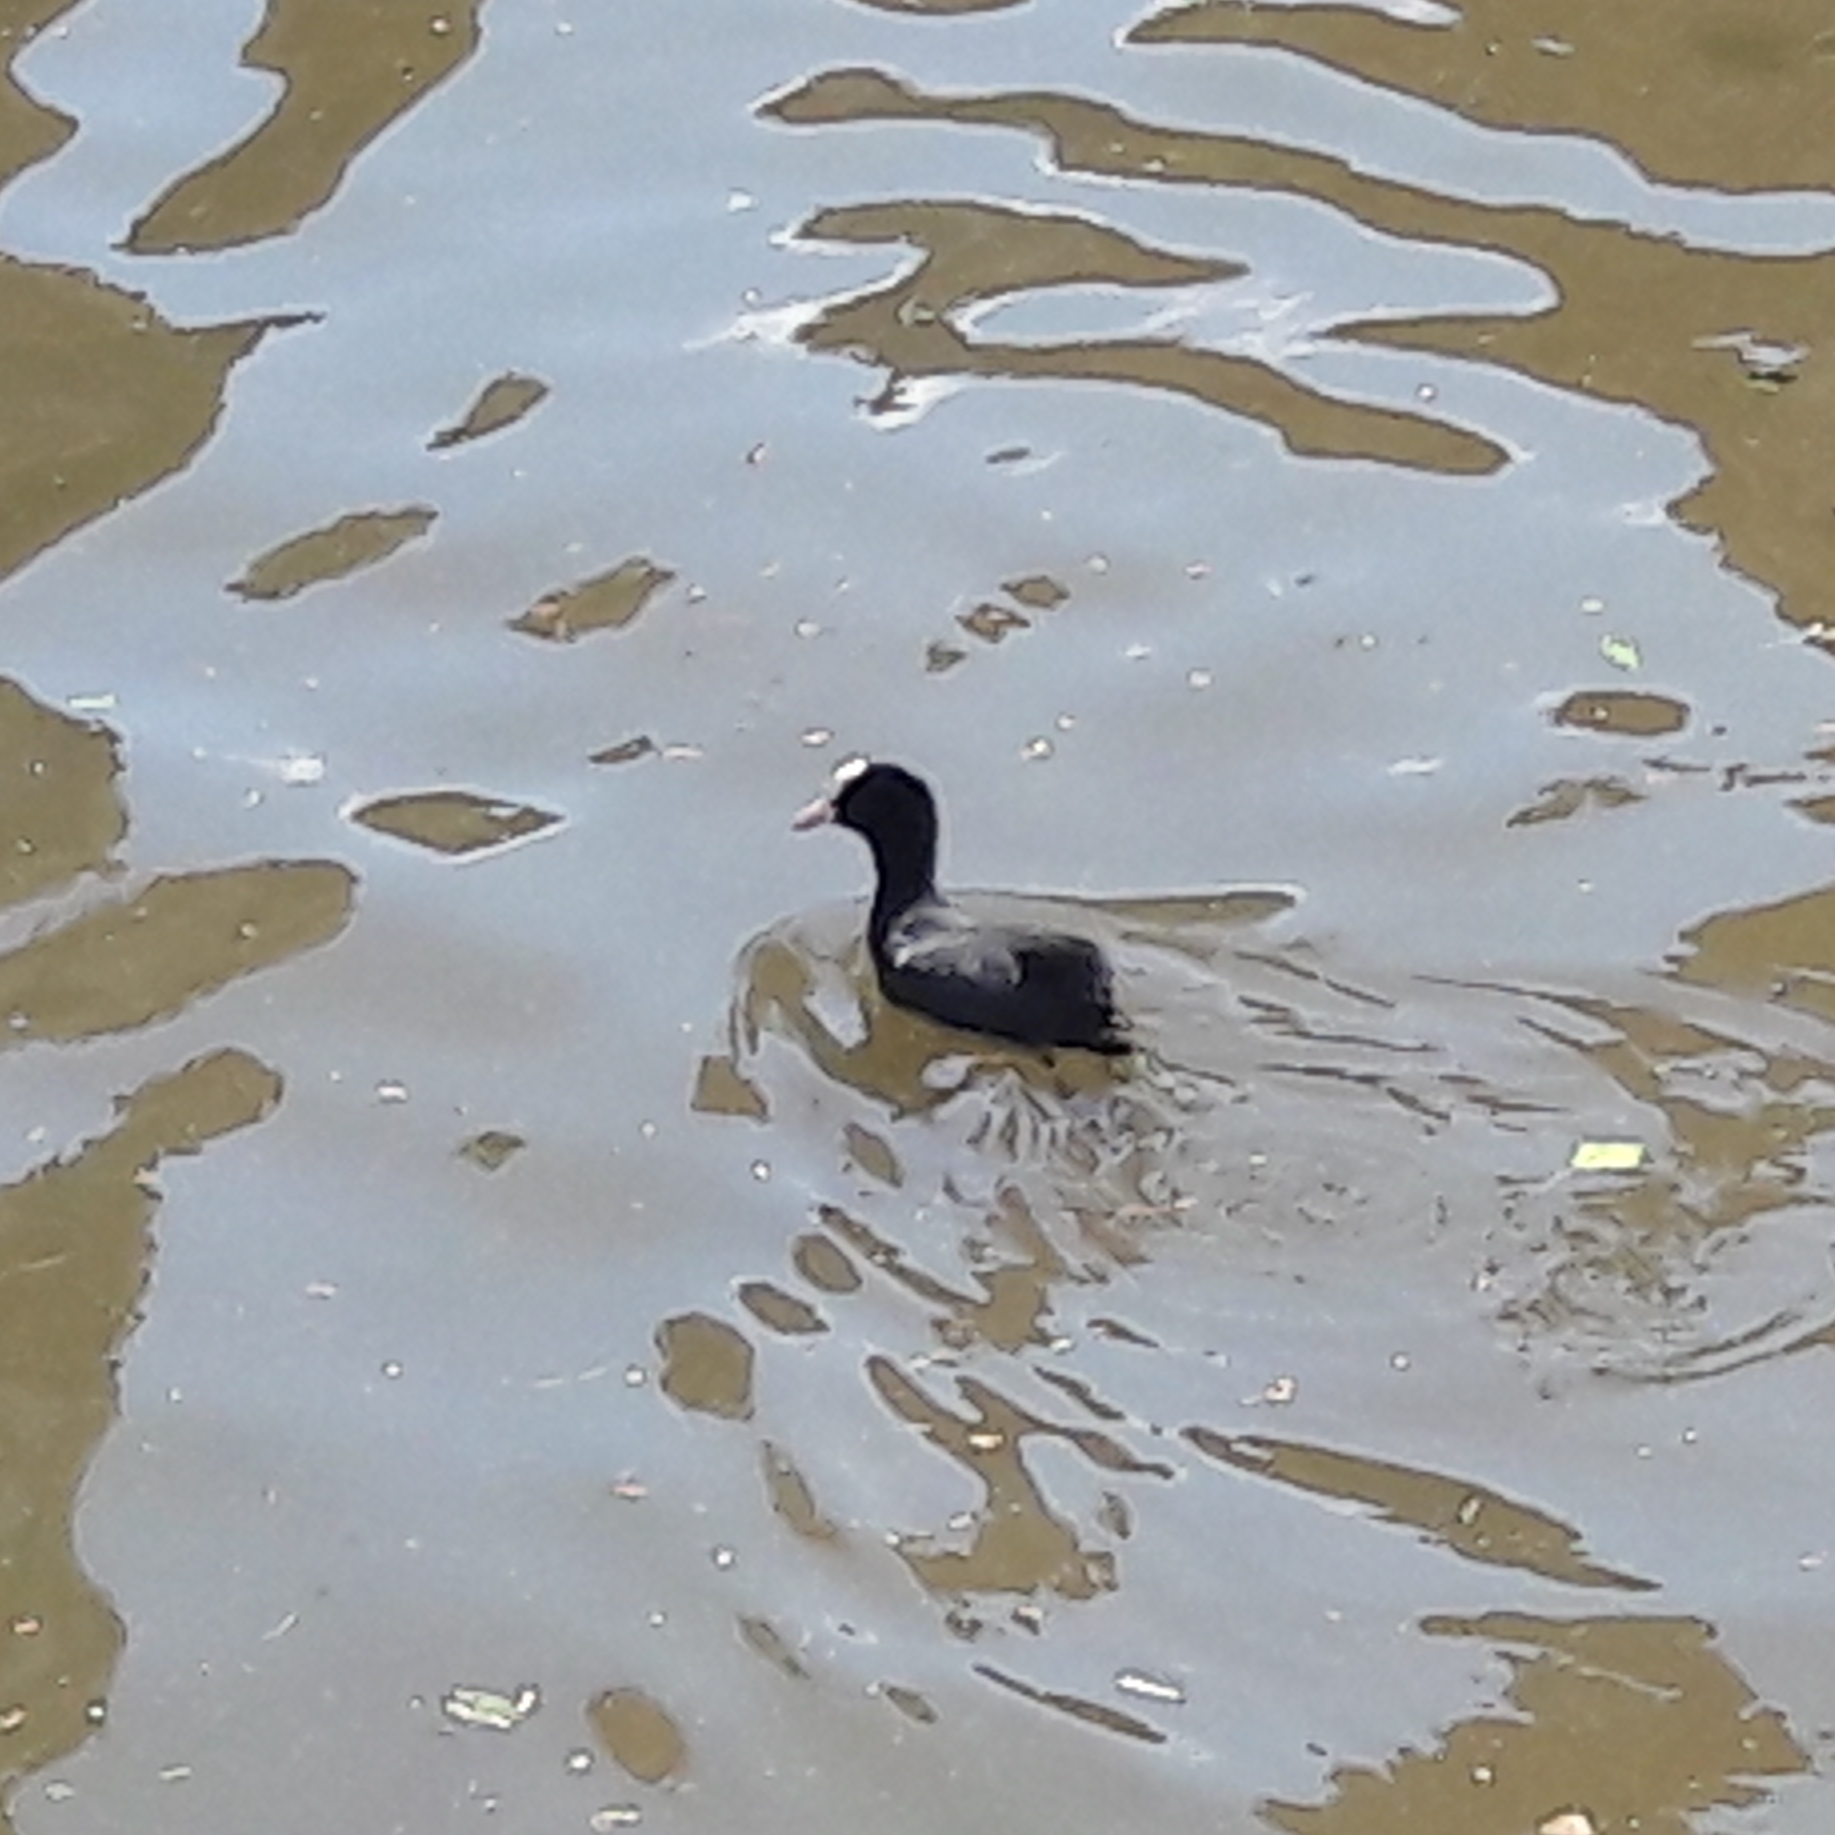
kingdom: Animalia
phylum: Chordata
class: Aves
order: Gruiformes
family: Rallidae
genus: Fulica
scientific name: Fulica atra
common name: Eurasian coot
